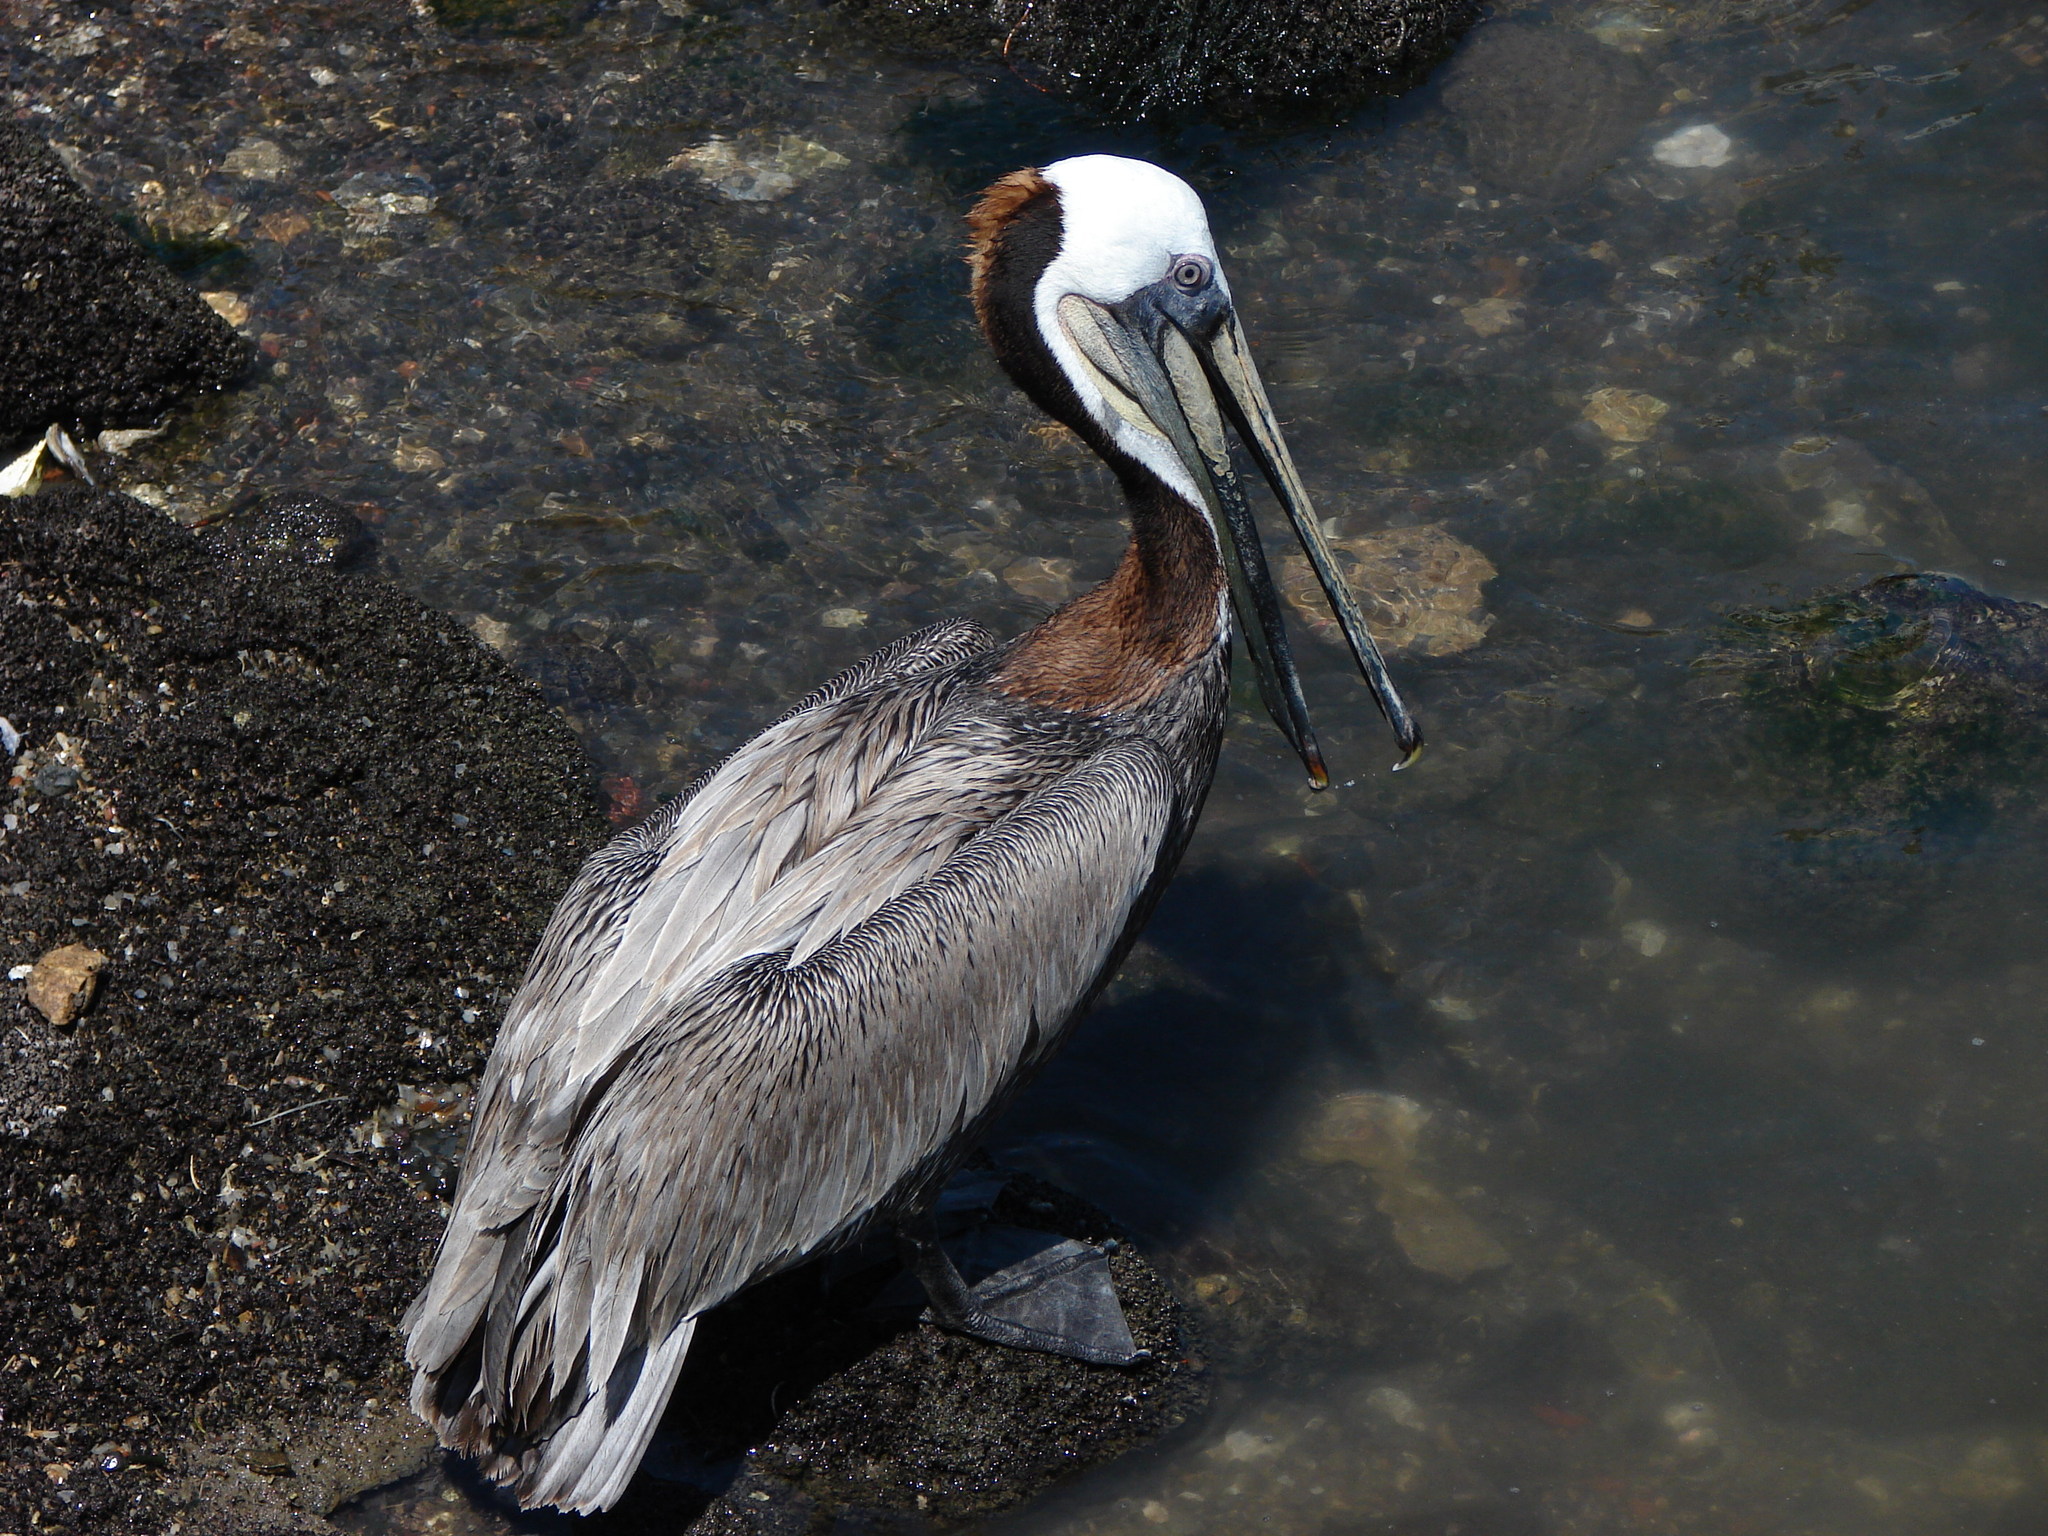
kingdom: Animalia
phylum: Chordata
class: Aves
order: Pelecaniformes
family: Pelecanidae
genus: Pelecanus
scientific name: Pelecanus occidentalis
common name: Brown pelican
